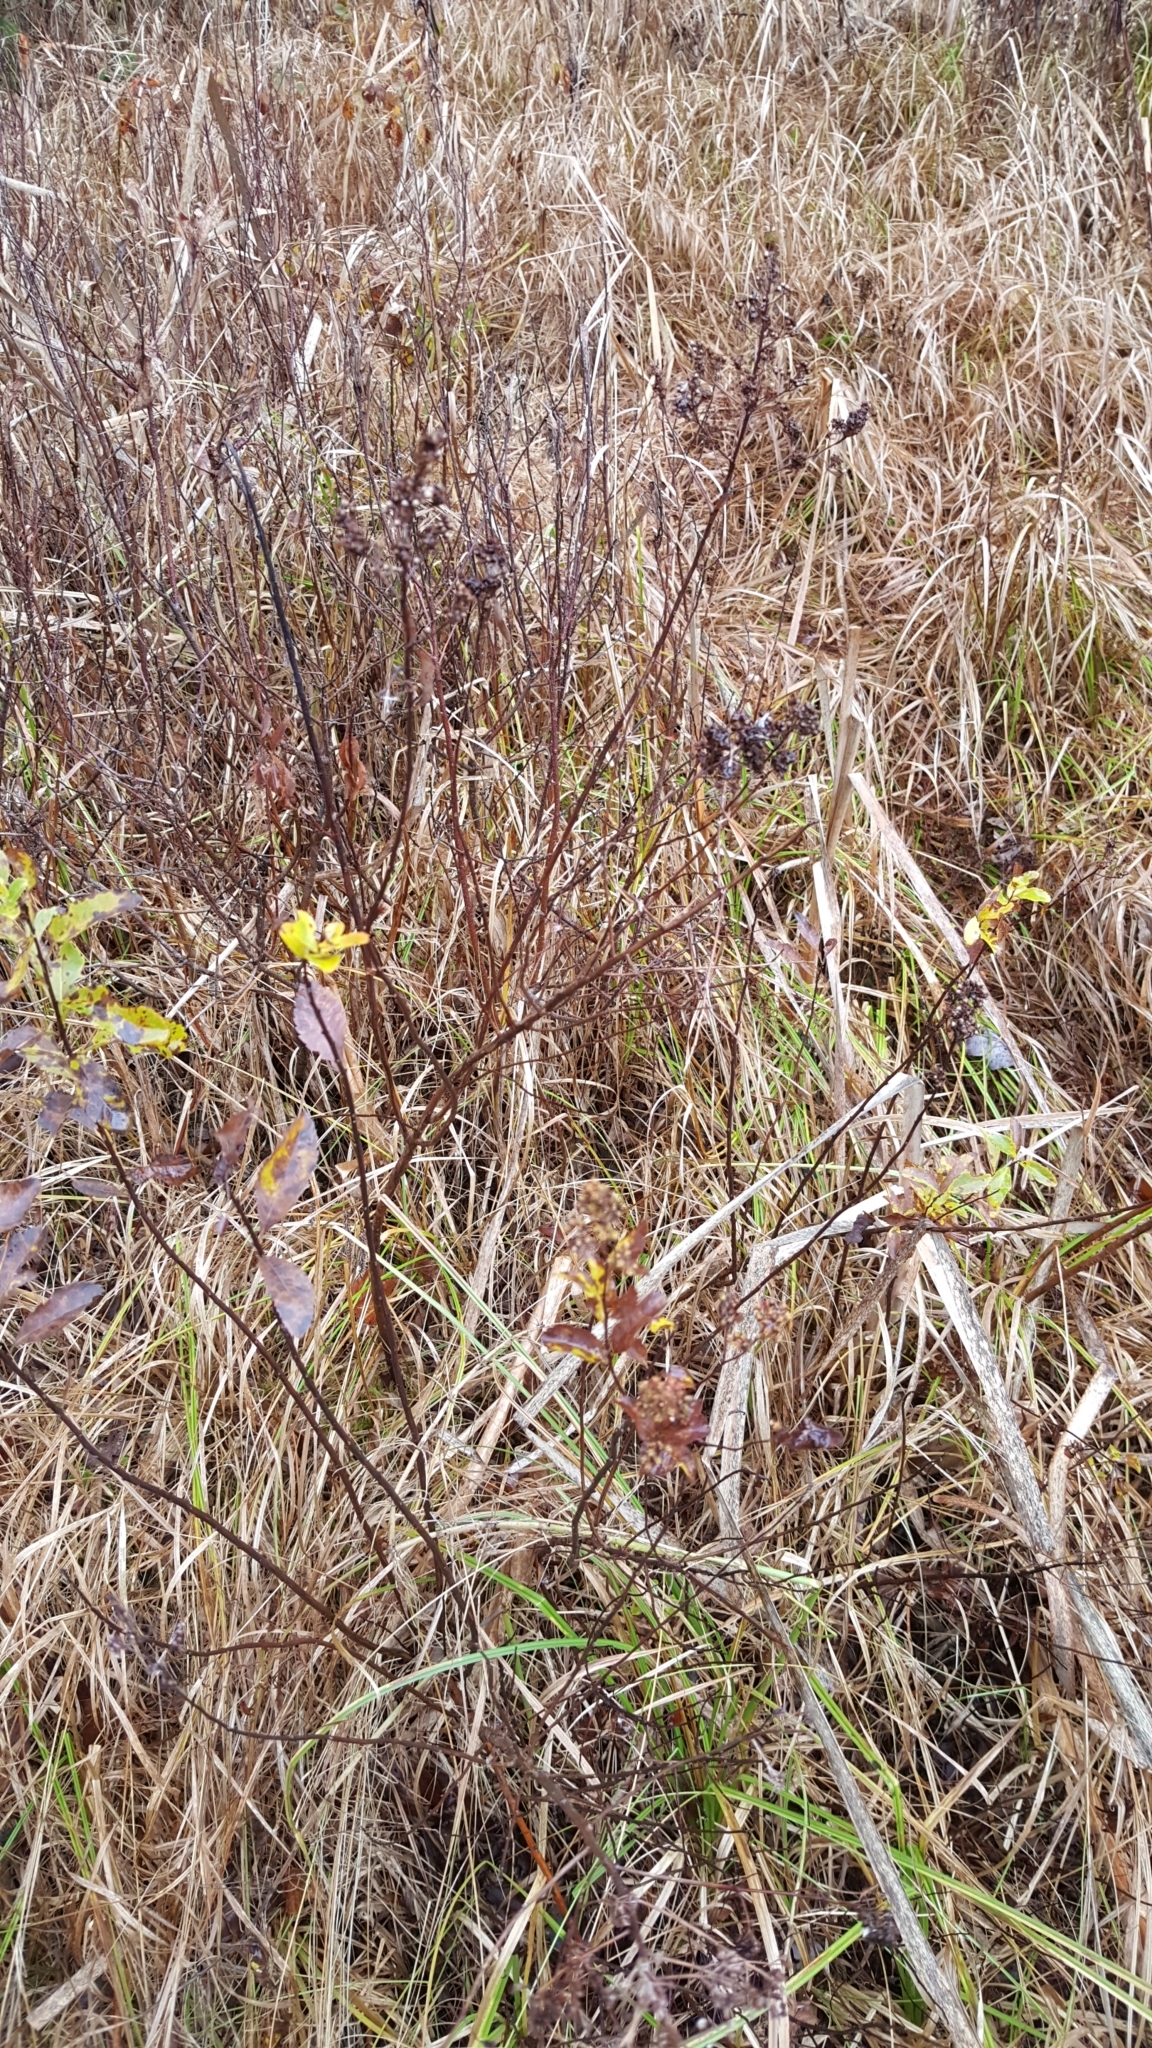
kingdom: Plantae
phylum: Tracheophyta
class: Magnoliopsida
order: Rosales
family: Rosaceae
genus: Spiraea
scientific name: Spiraea alba
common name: Pale bridewort
